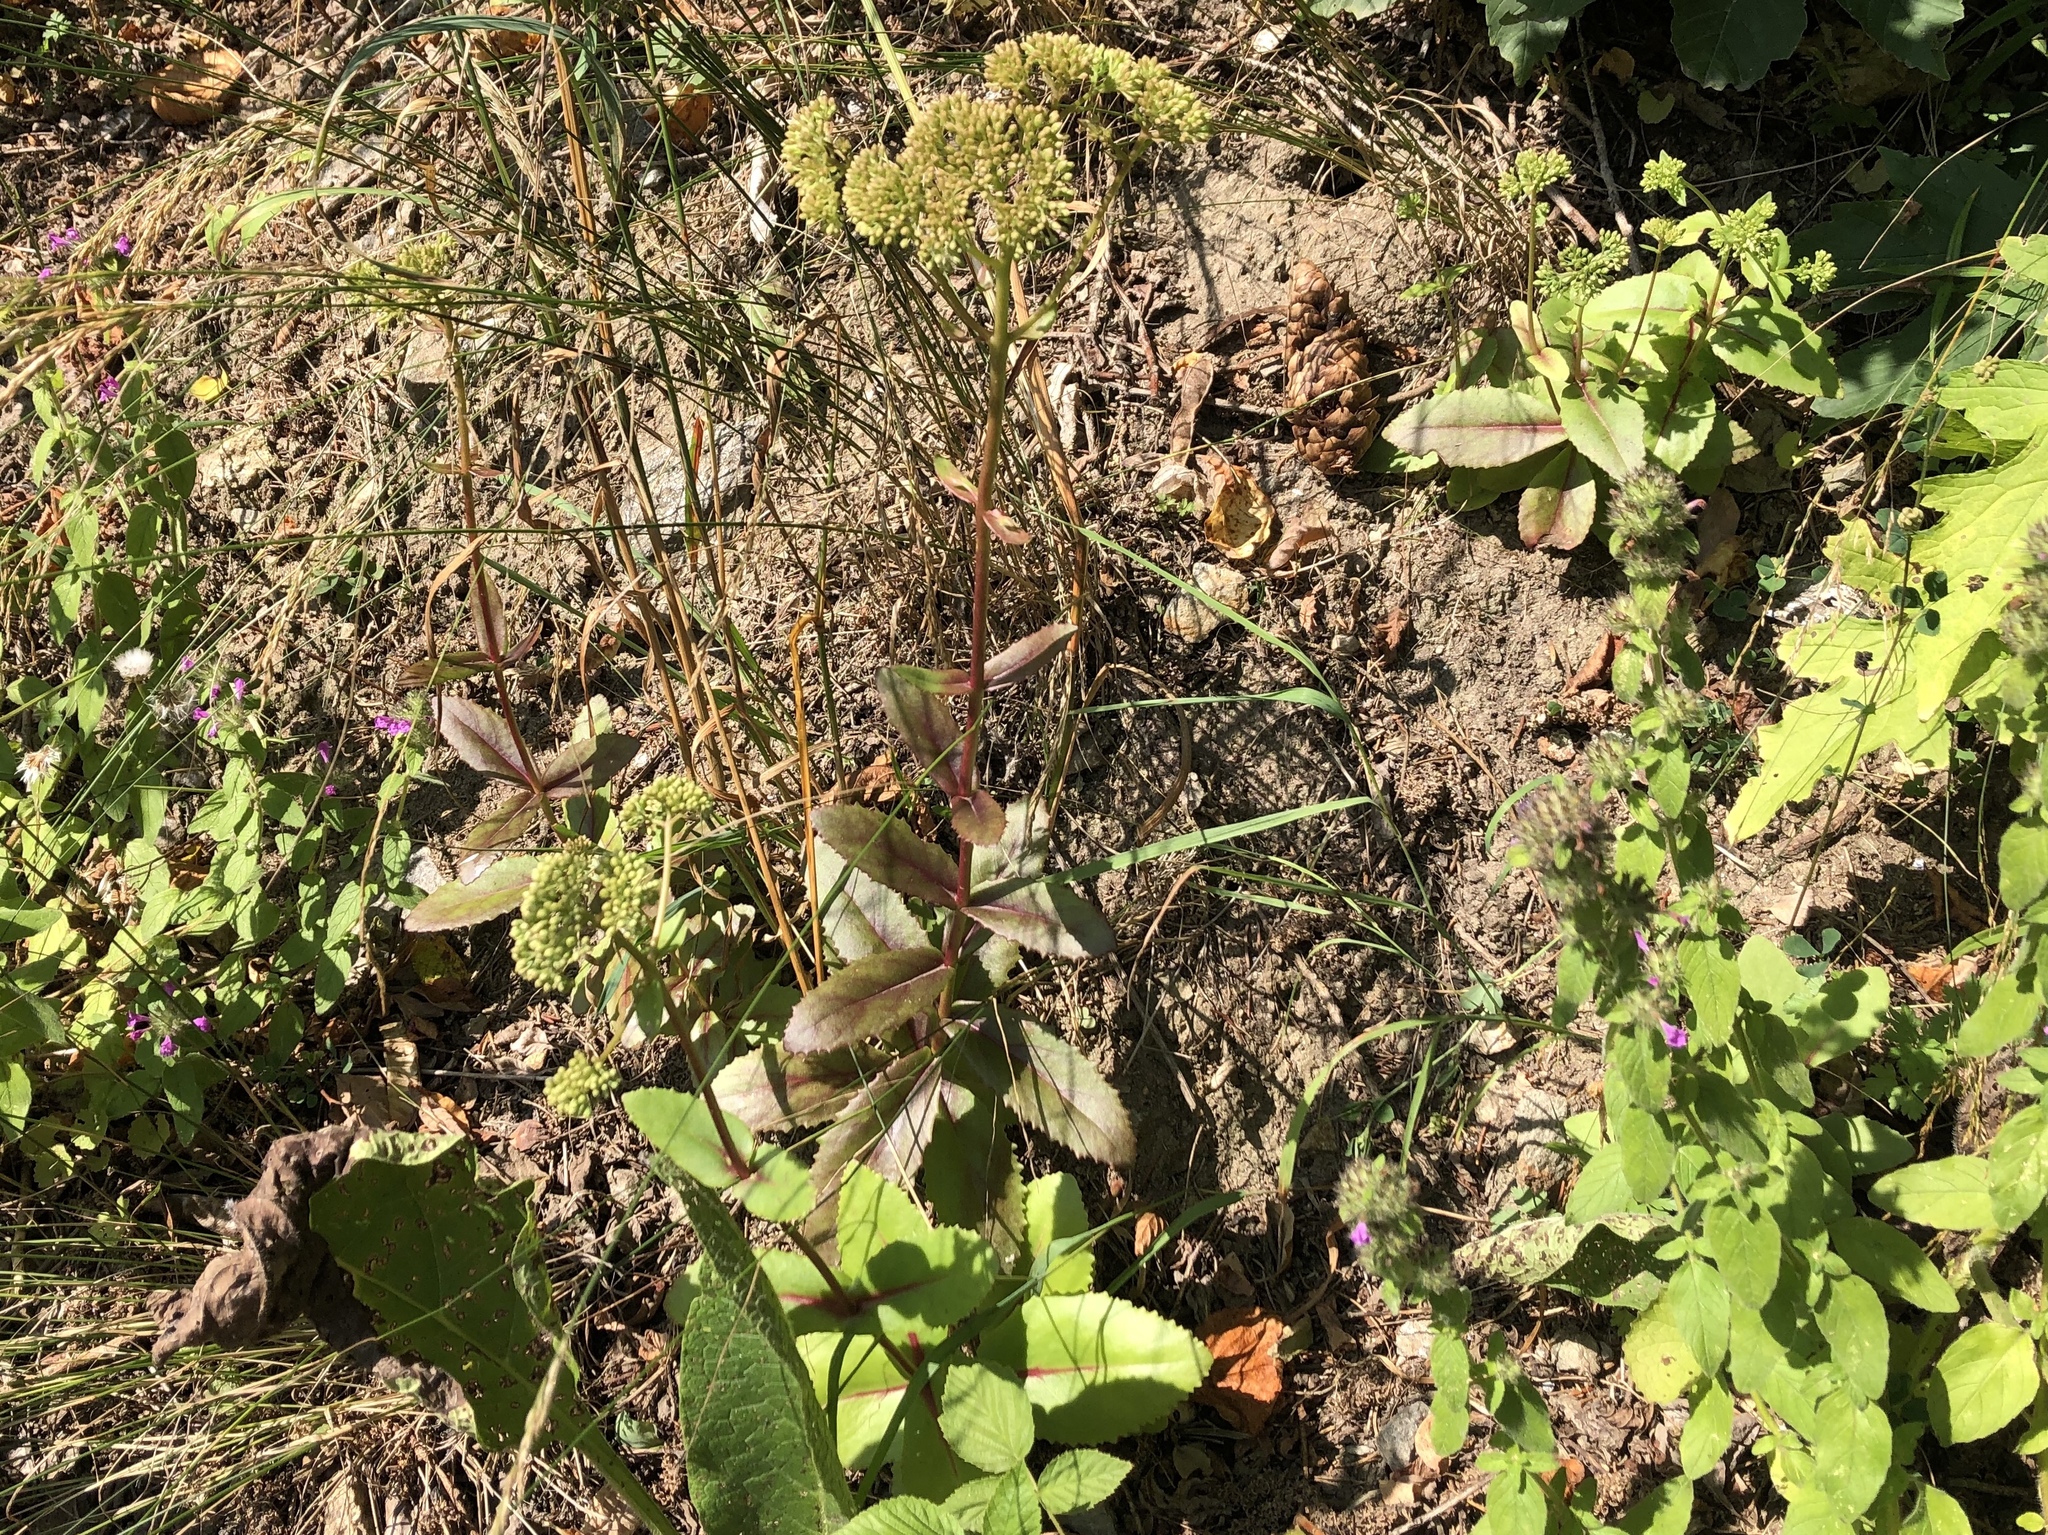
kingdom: Plantae
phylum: Tracheophyta
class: Magnoliopsida
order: Saxifragales
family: Crassulaceae
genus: Hylotelephium
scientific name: Hylotelephium maximum
